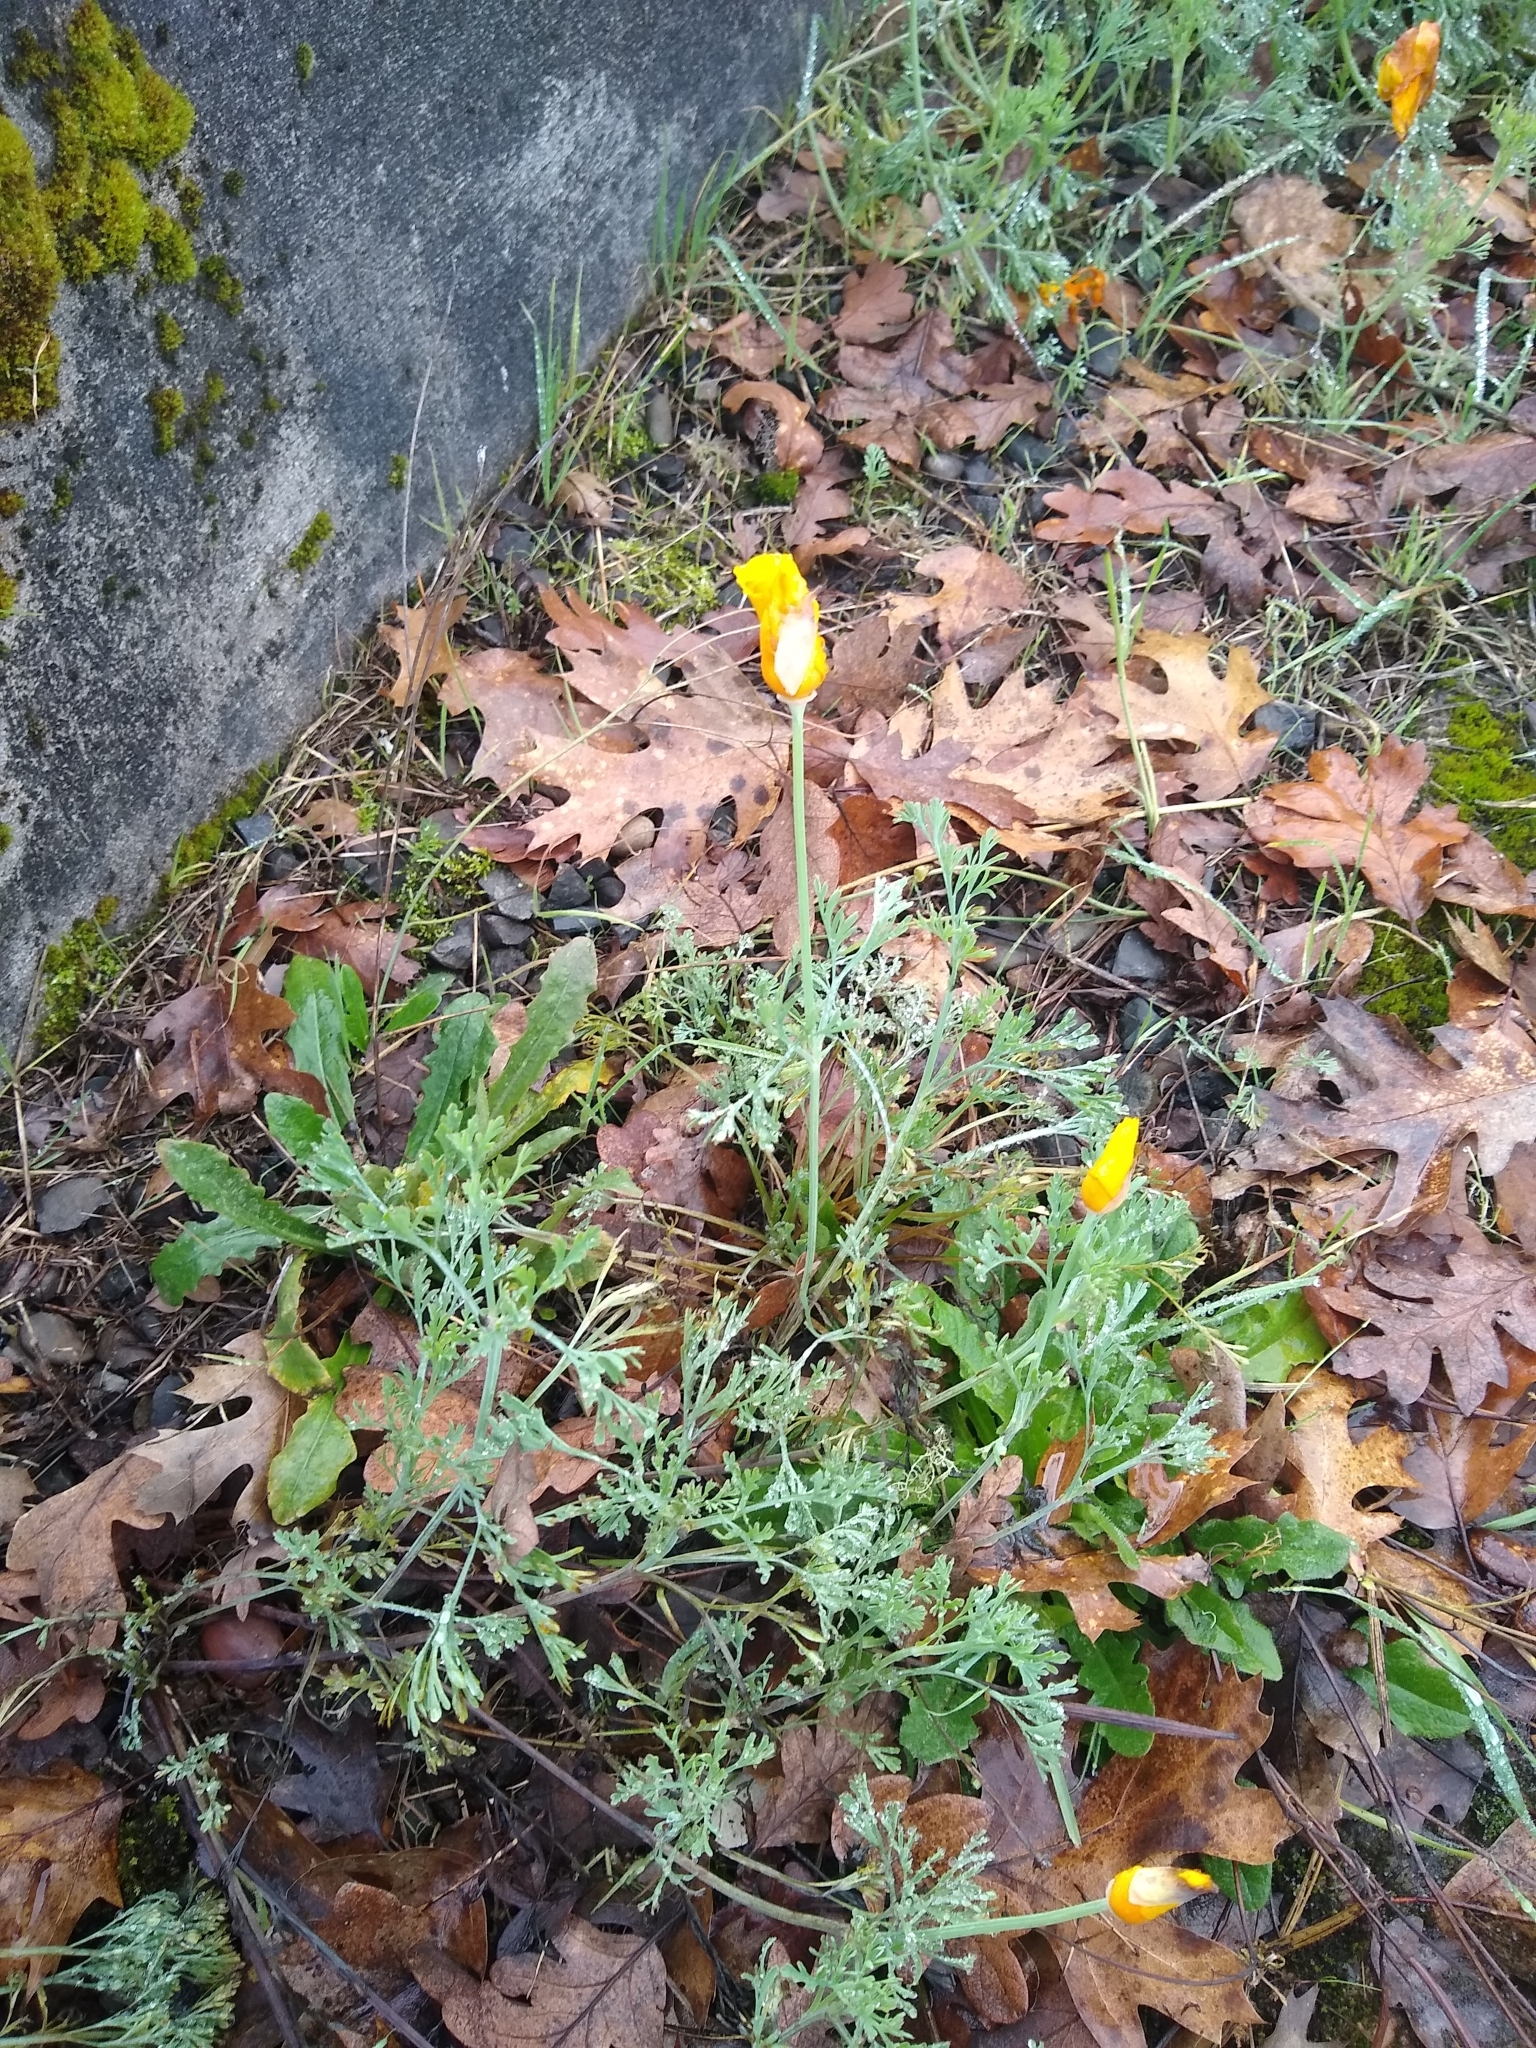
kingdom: Plantae
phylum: Tracheophyta
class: Magnoliopsida
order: Ranunculales
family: Papaveraceae
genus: Eschscholzia
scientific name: Eschscholzia californica
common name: California poppy
